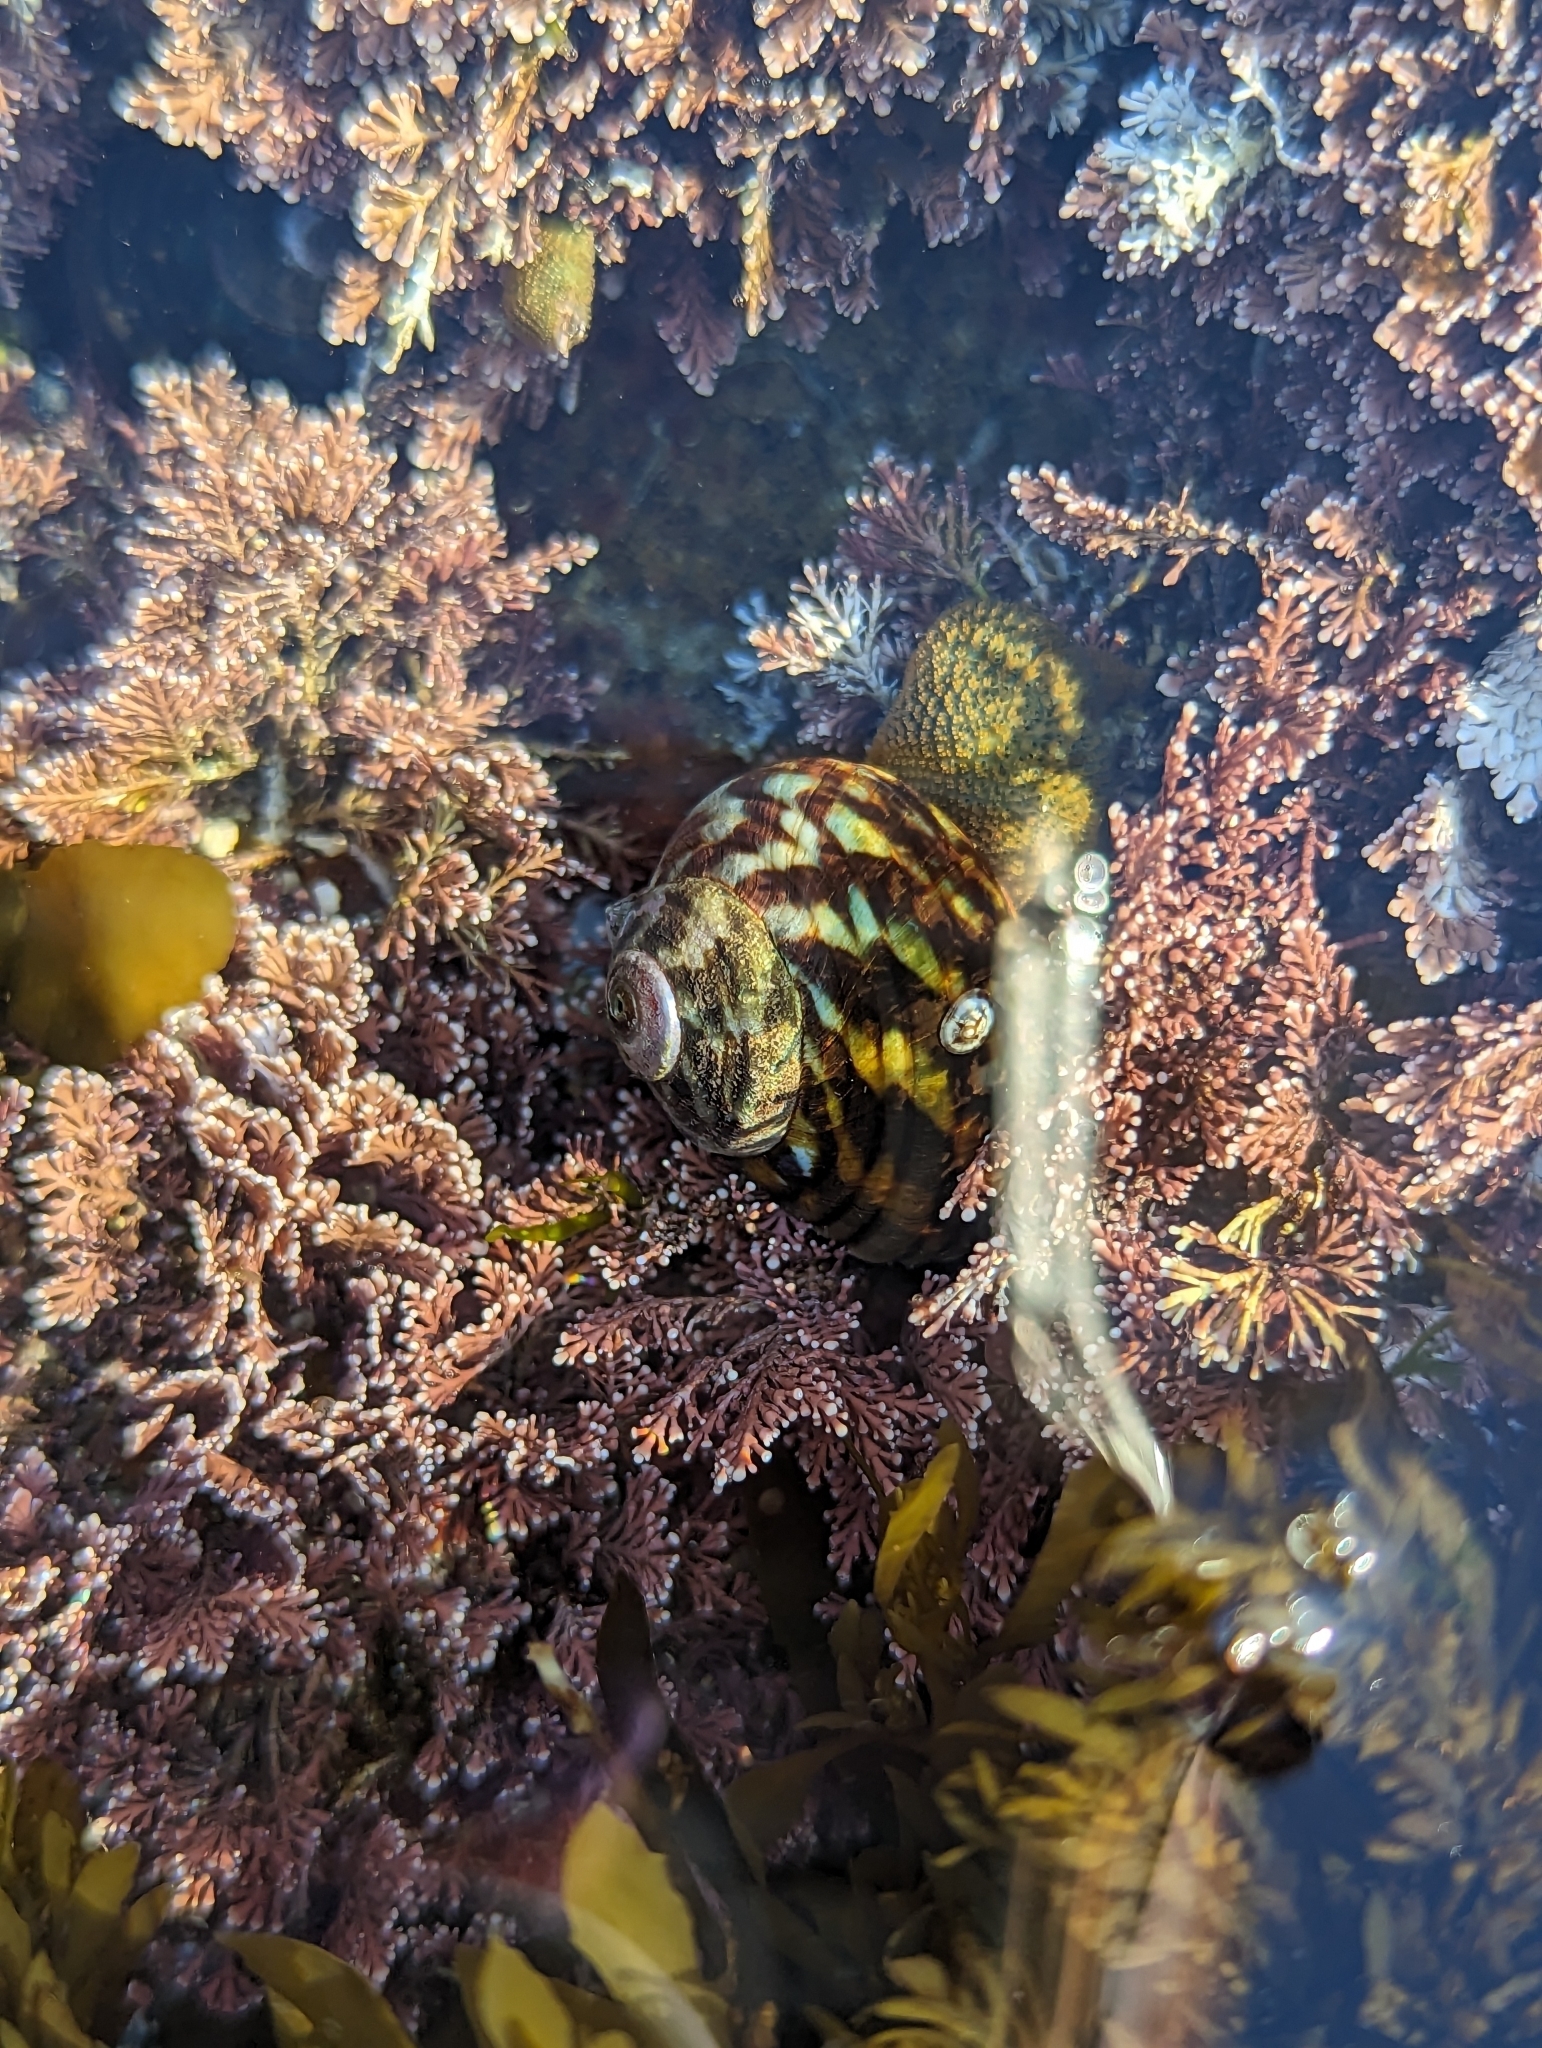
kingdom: Animalia
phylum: Mollusca
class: Gastropoda
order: Trochida
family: Turbinidae
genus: Lunella
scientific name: Lunella undulata
